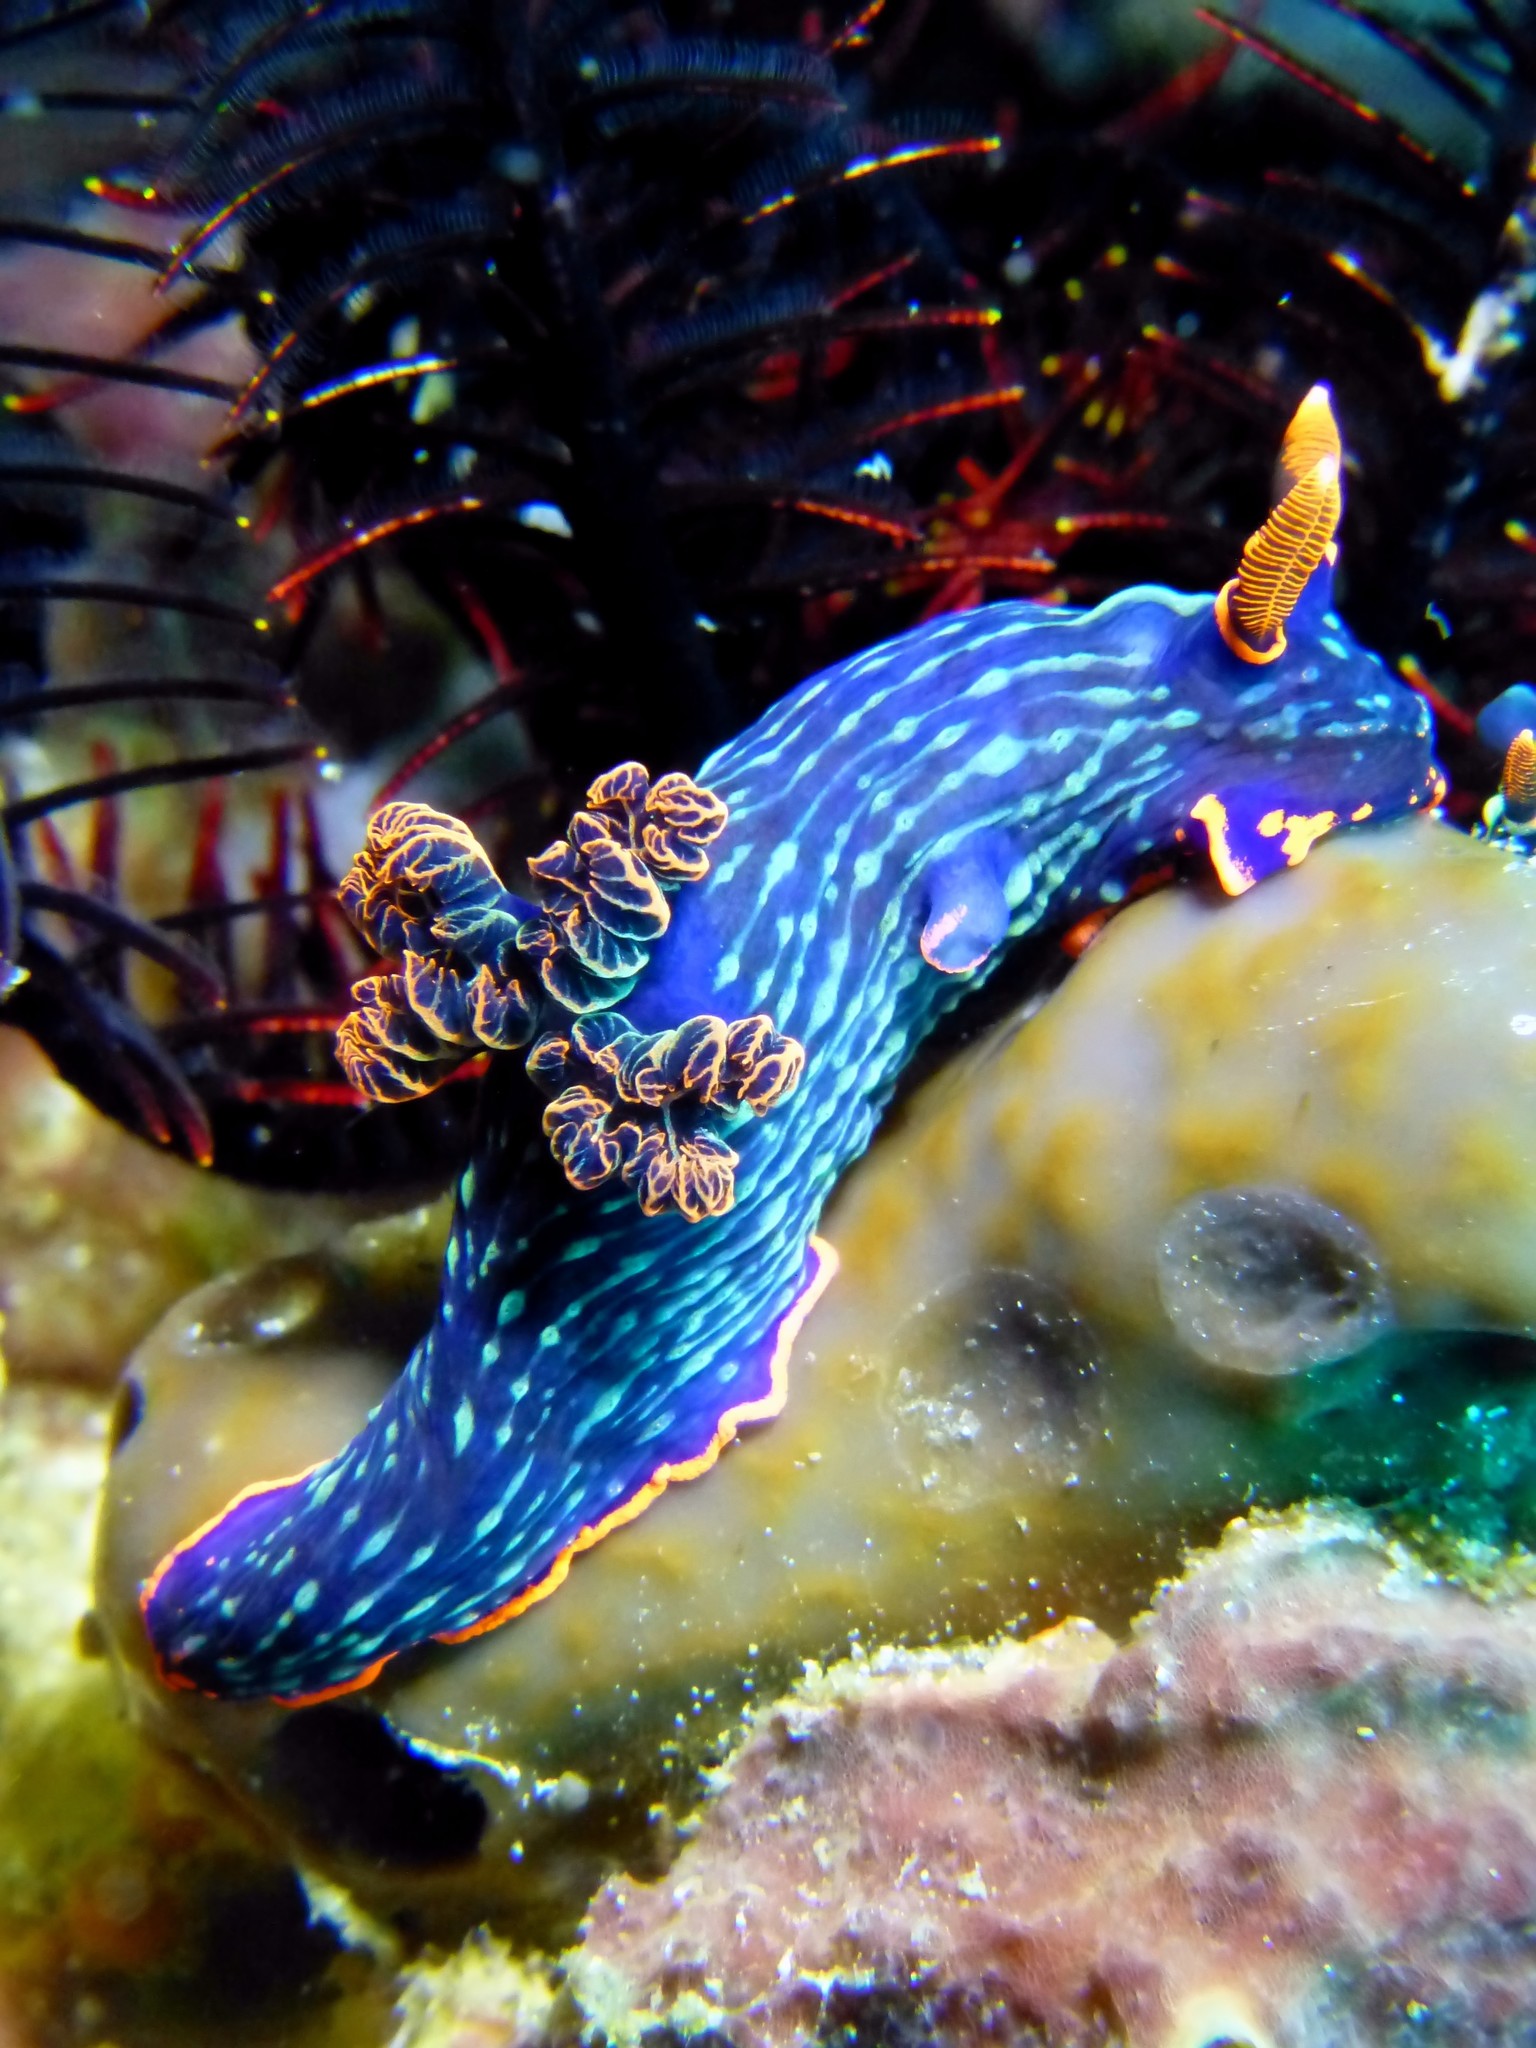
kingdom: Animalia
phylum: Mollusca
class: Gastropoda
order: Nudibranchia
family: Polyceridae
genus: Nembrotha
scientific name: Nembrotha kubaryana
